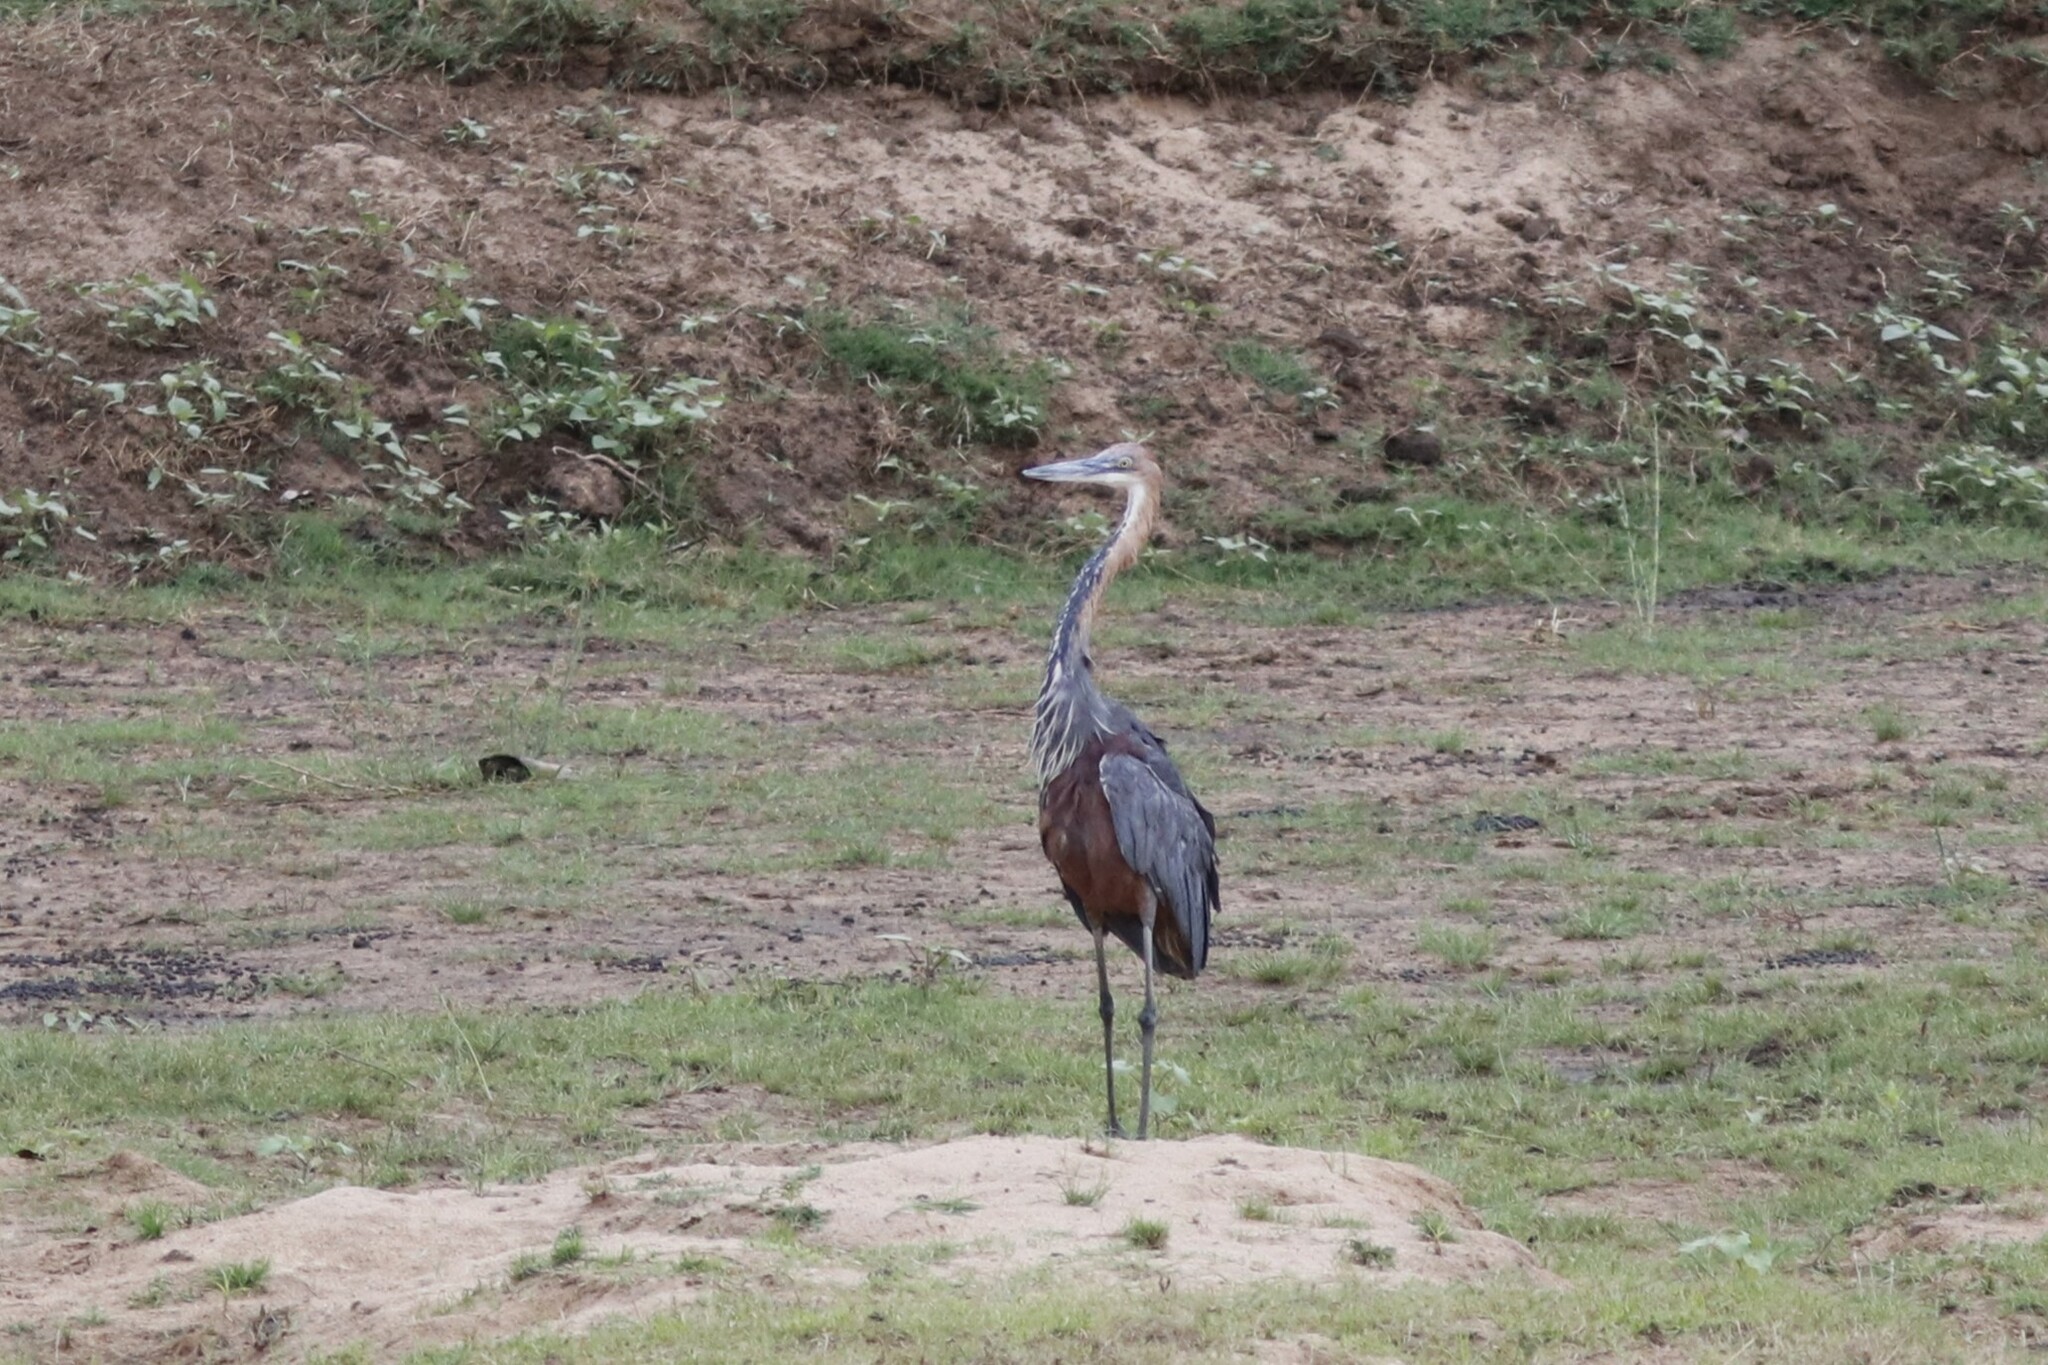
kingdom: Animalia
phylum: Chordata
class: Aves
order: Pelecaniformes
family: Ardeidae
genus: Ardea
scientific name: Ardea goliath
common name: Goliath heron
